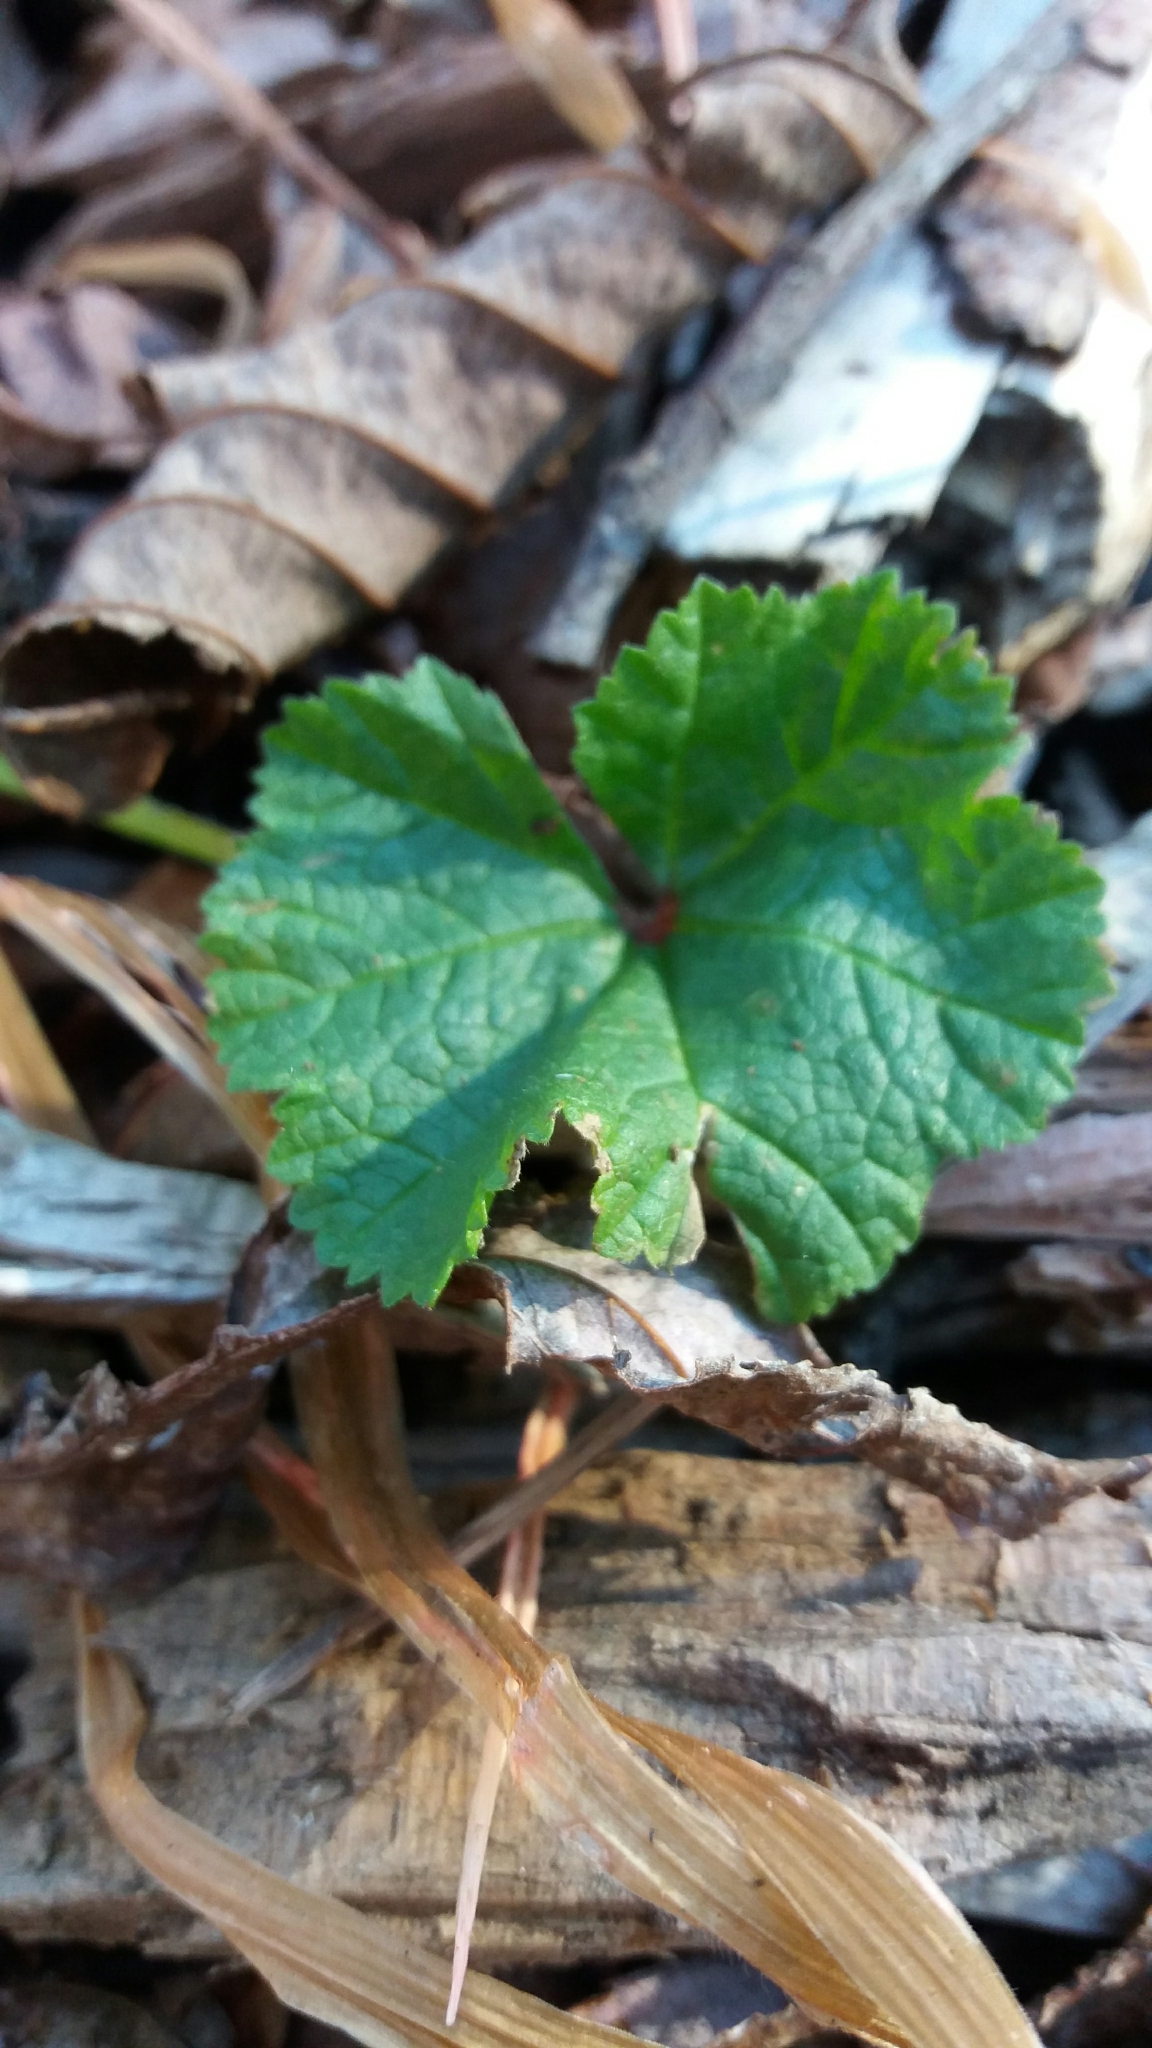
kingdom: Plantae
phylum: Tracheophyta
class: Magnoliopsida
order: Malvales
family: Malvaceae
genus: Malva
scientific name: Malva neglecta
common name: Common mallow
